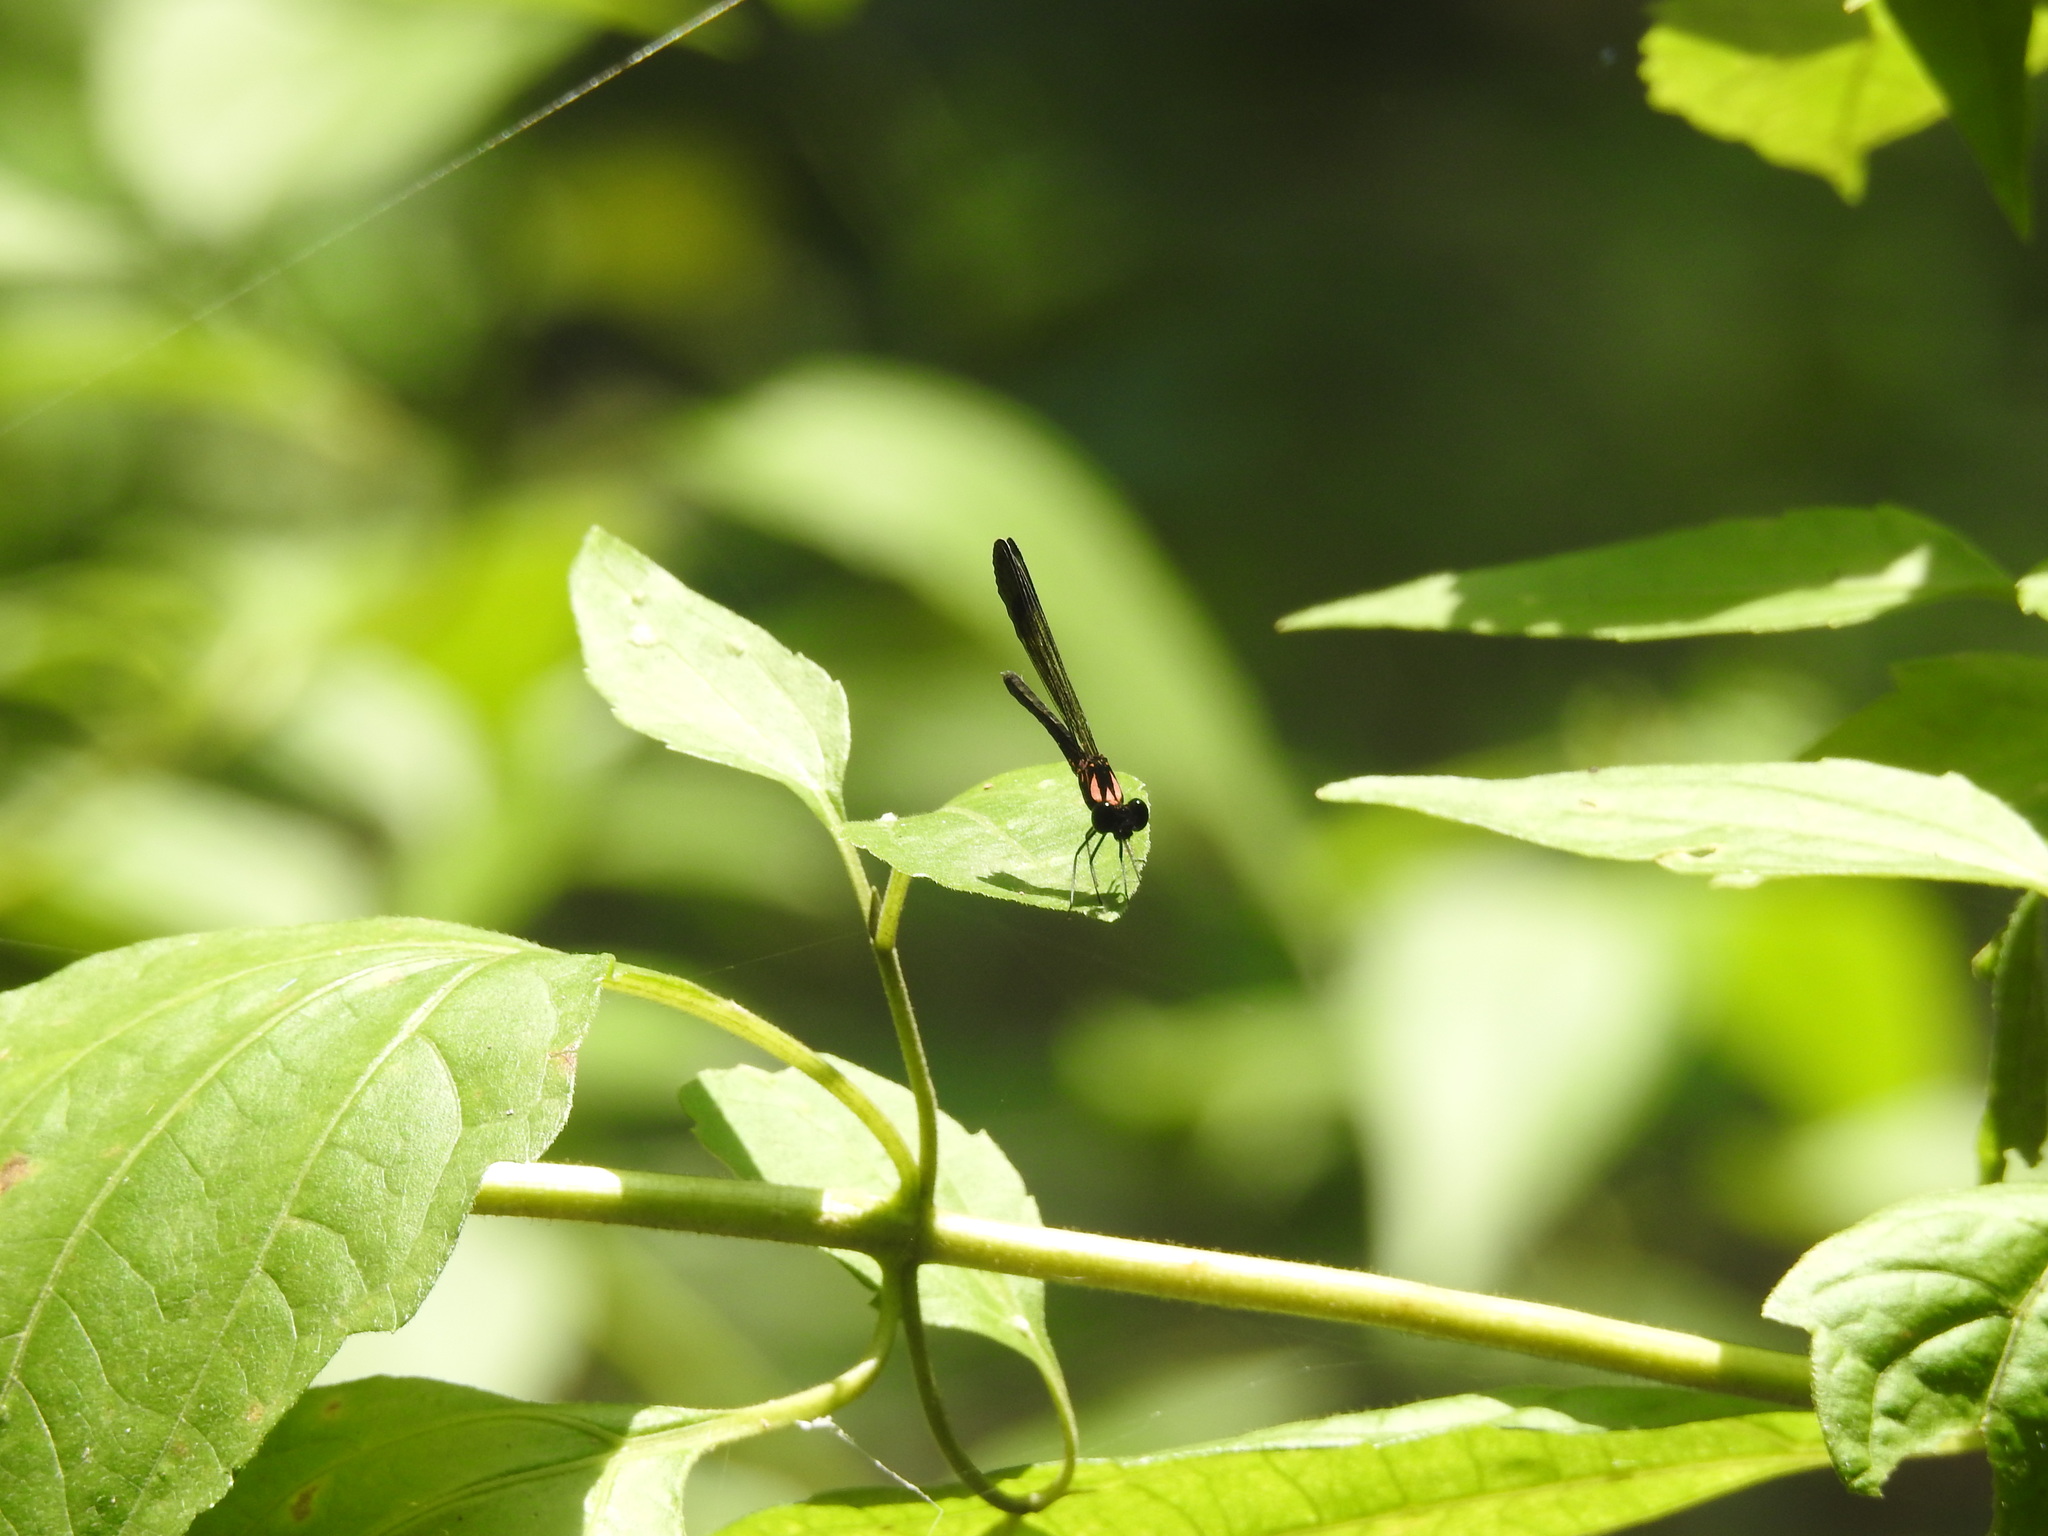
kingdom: Animalia
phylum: Arthropoda
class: Insecta
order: Odonata
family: Chlorocyphidae
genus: Heliocypha
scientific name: Heliocypha bisignata
